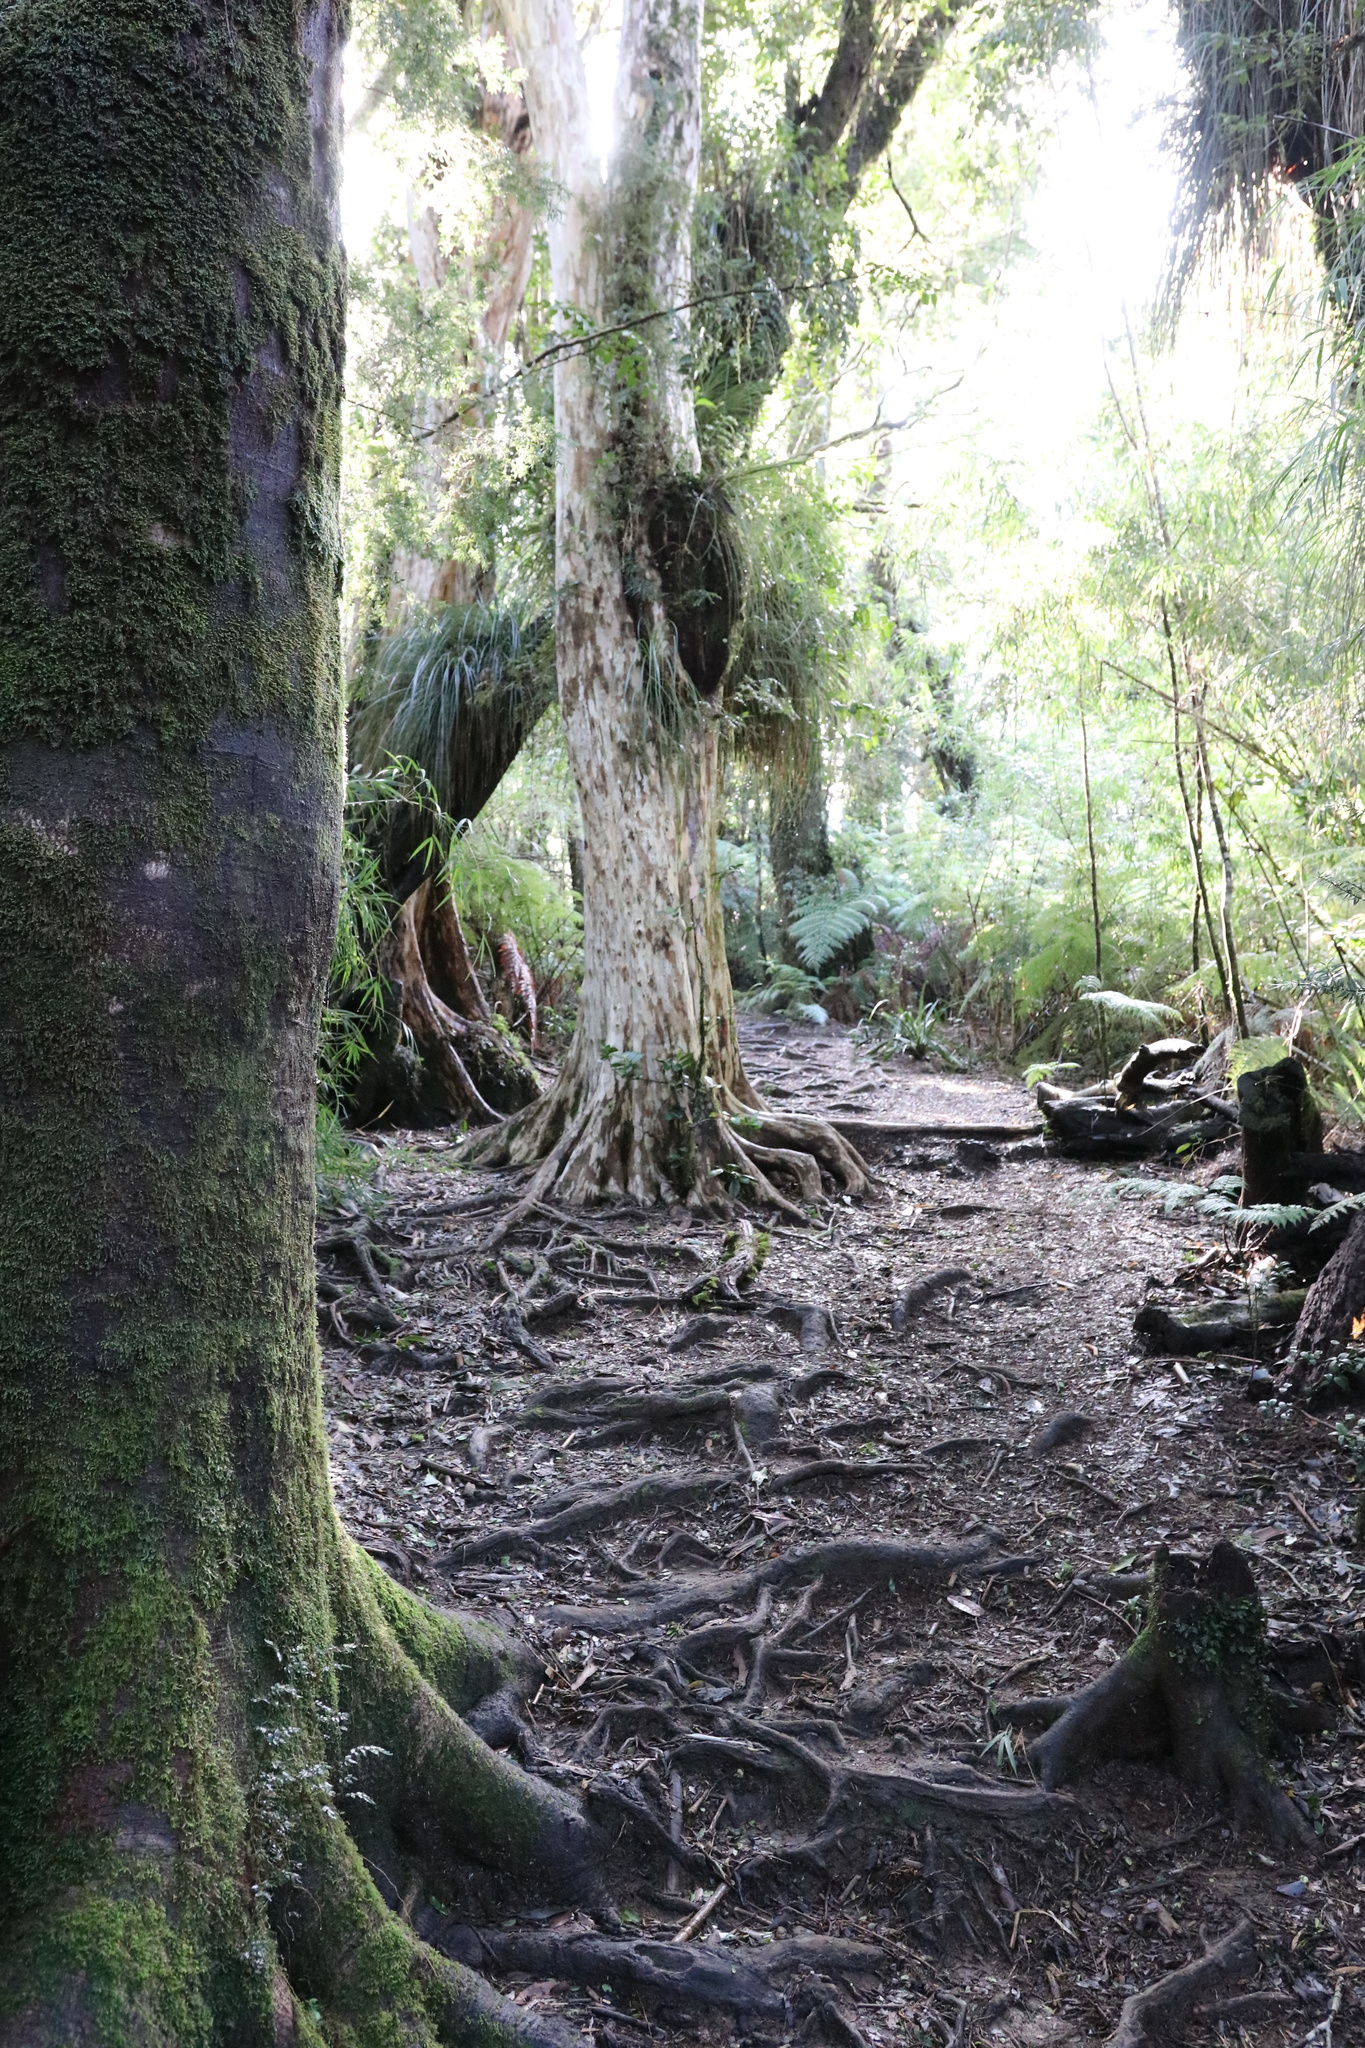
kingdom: Plantae
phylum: Tracheophyta
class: Magnoliopsida
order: Myrtales
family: Myrtaceae
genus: Amomyrtus
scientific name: Amomyrtus meli
